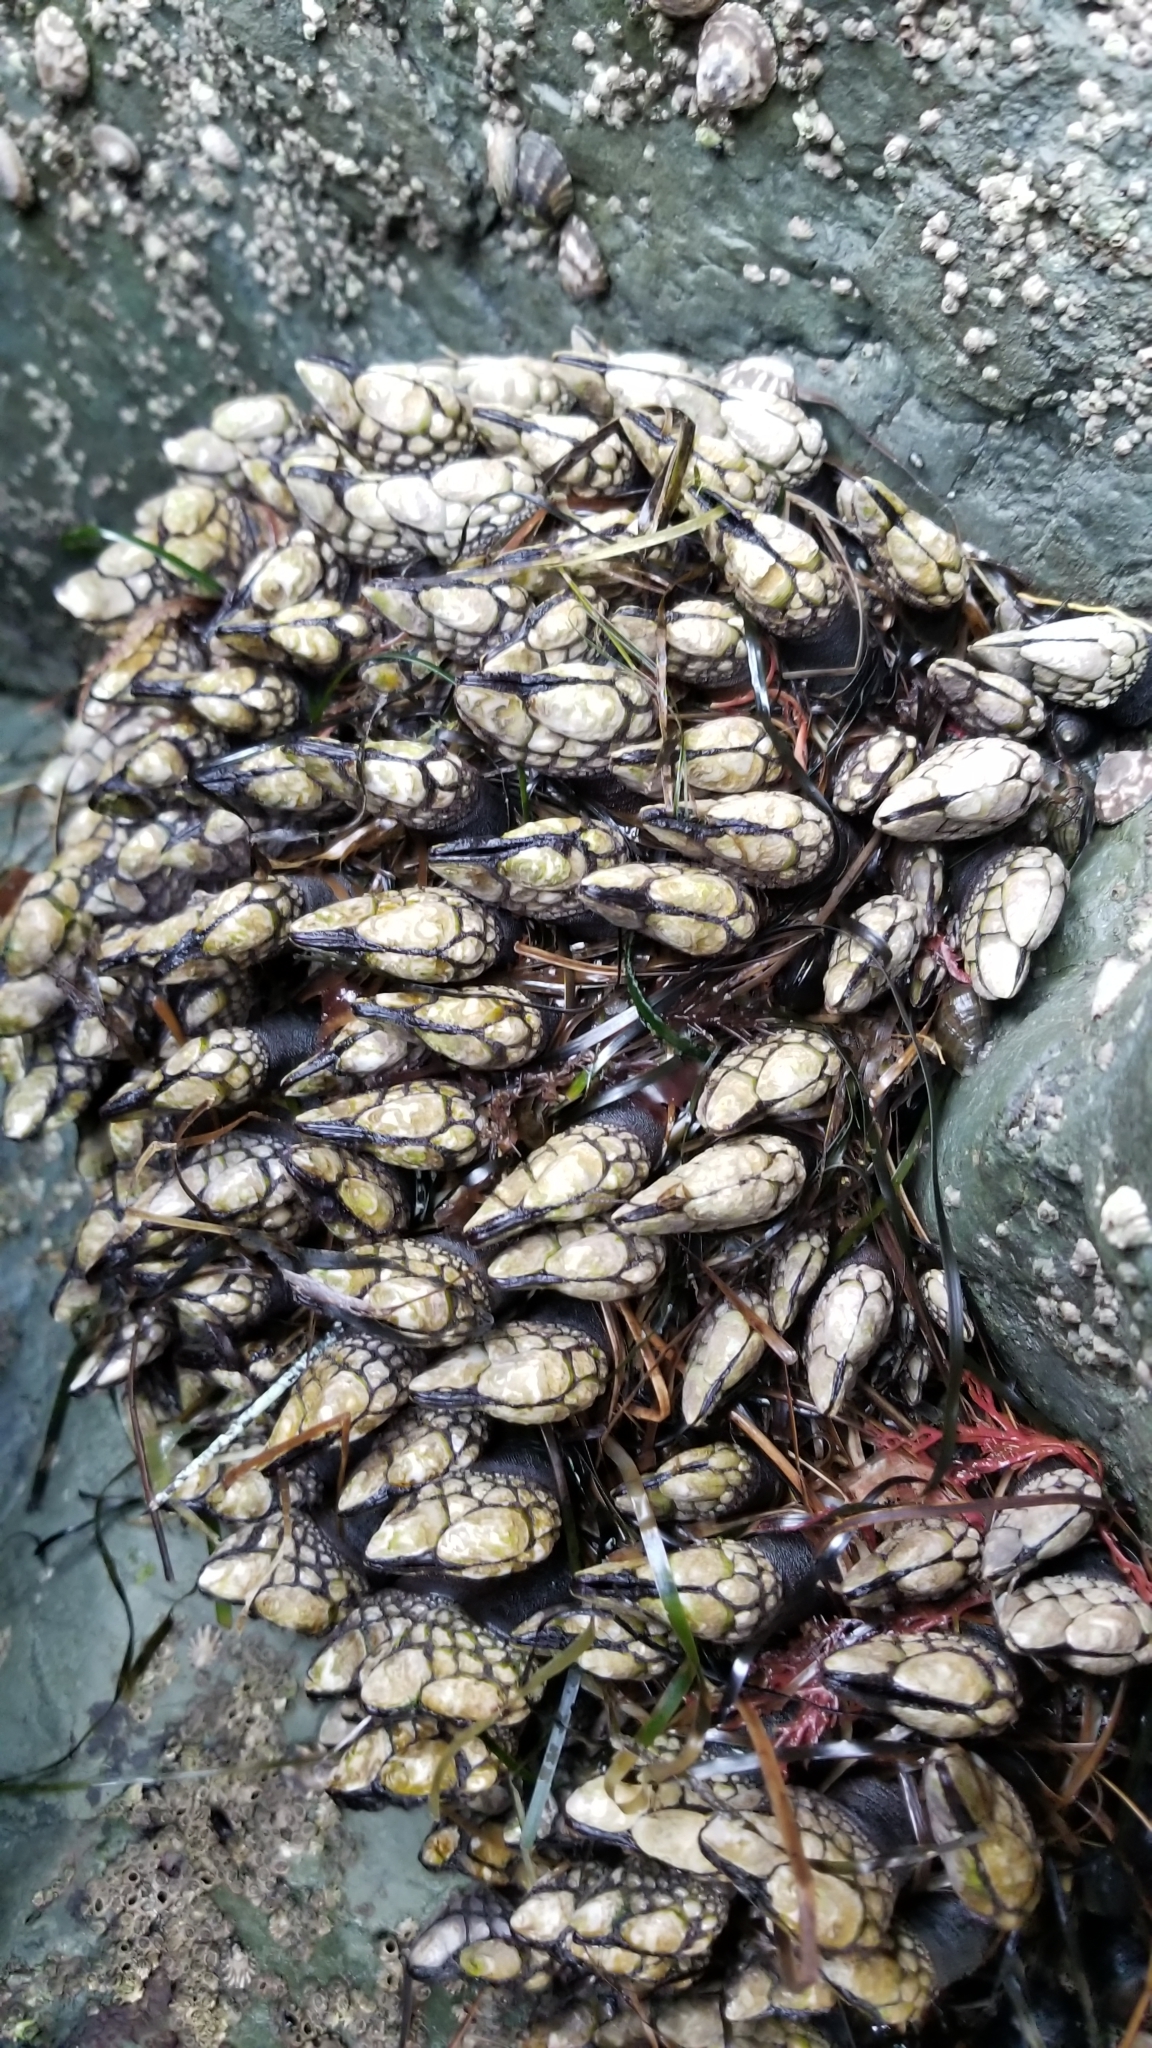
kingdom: Animalia
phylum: Arthropoda
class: Maxillopoda
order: Pedunculata
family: Pollicipedidae
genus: Pollicipes
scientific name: Pollicipes polymerus
